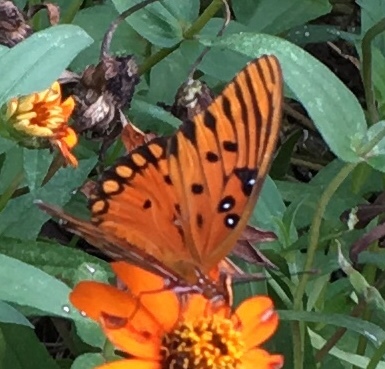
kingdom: Animalia
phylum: Arthropoda
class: Insecta
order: Lepidoptera
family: Nymphalidae
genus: Dione
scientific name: Dione vanillae
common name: Gulf fritillary
